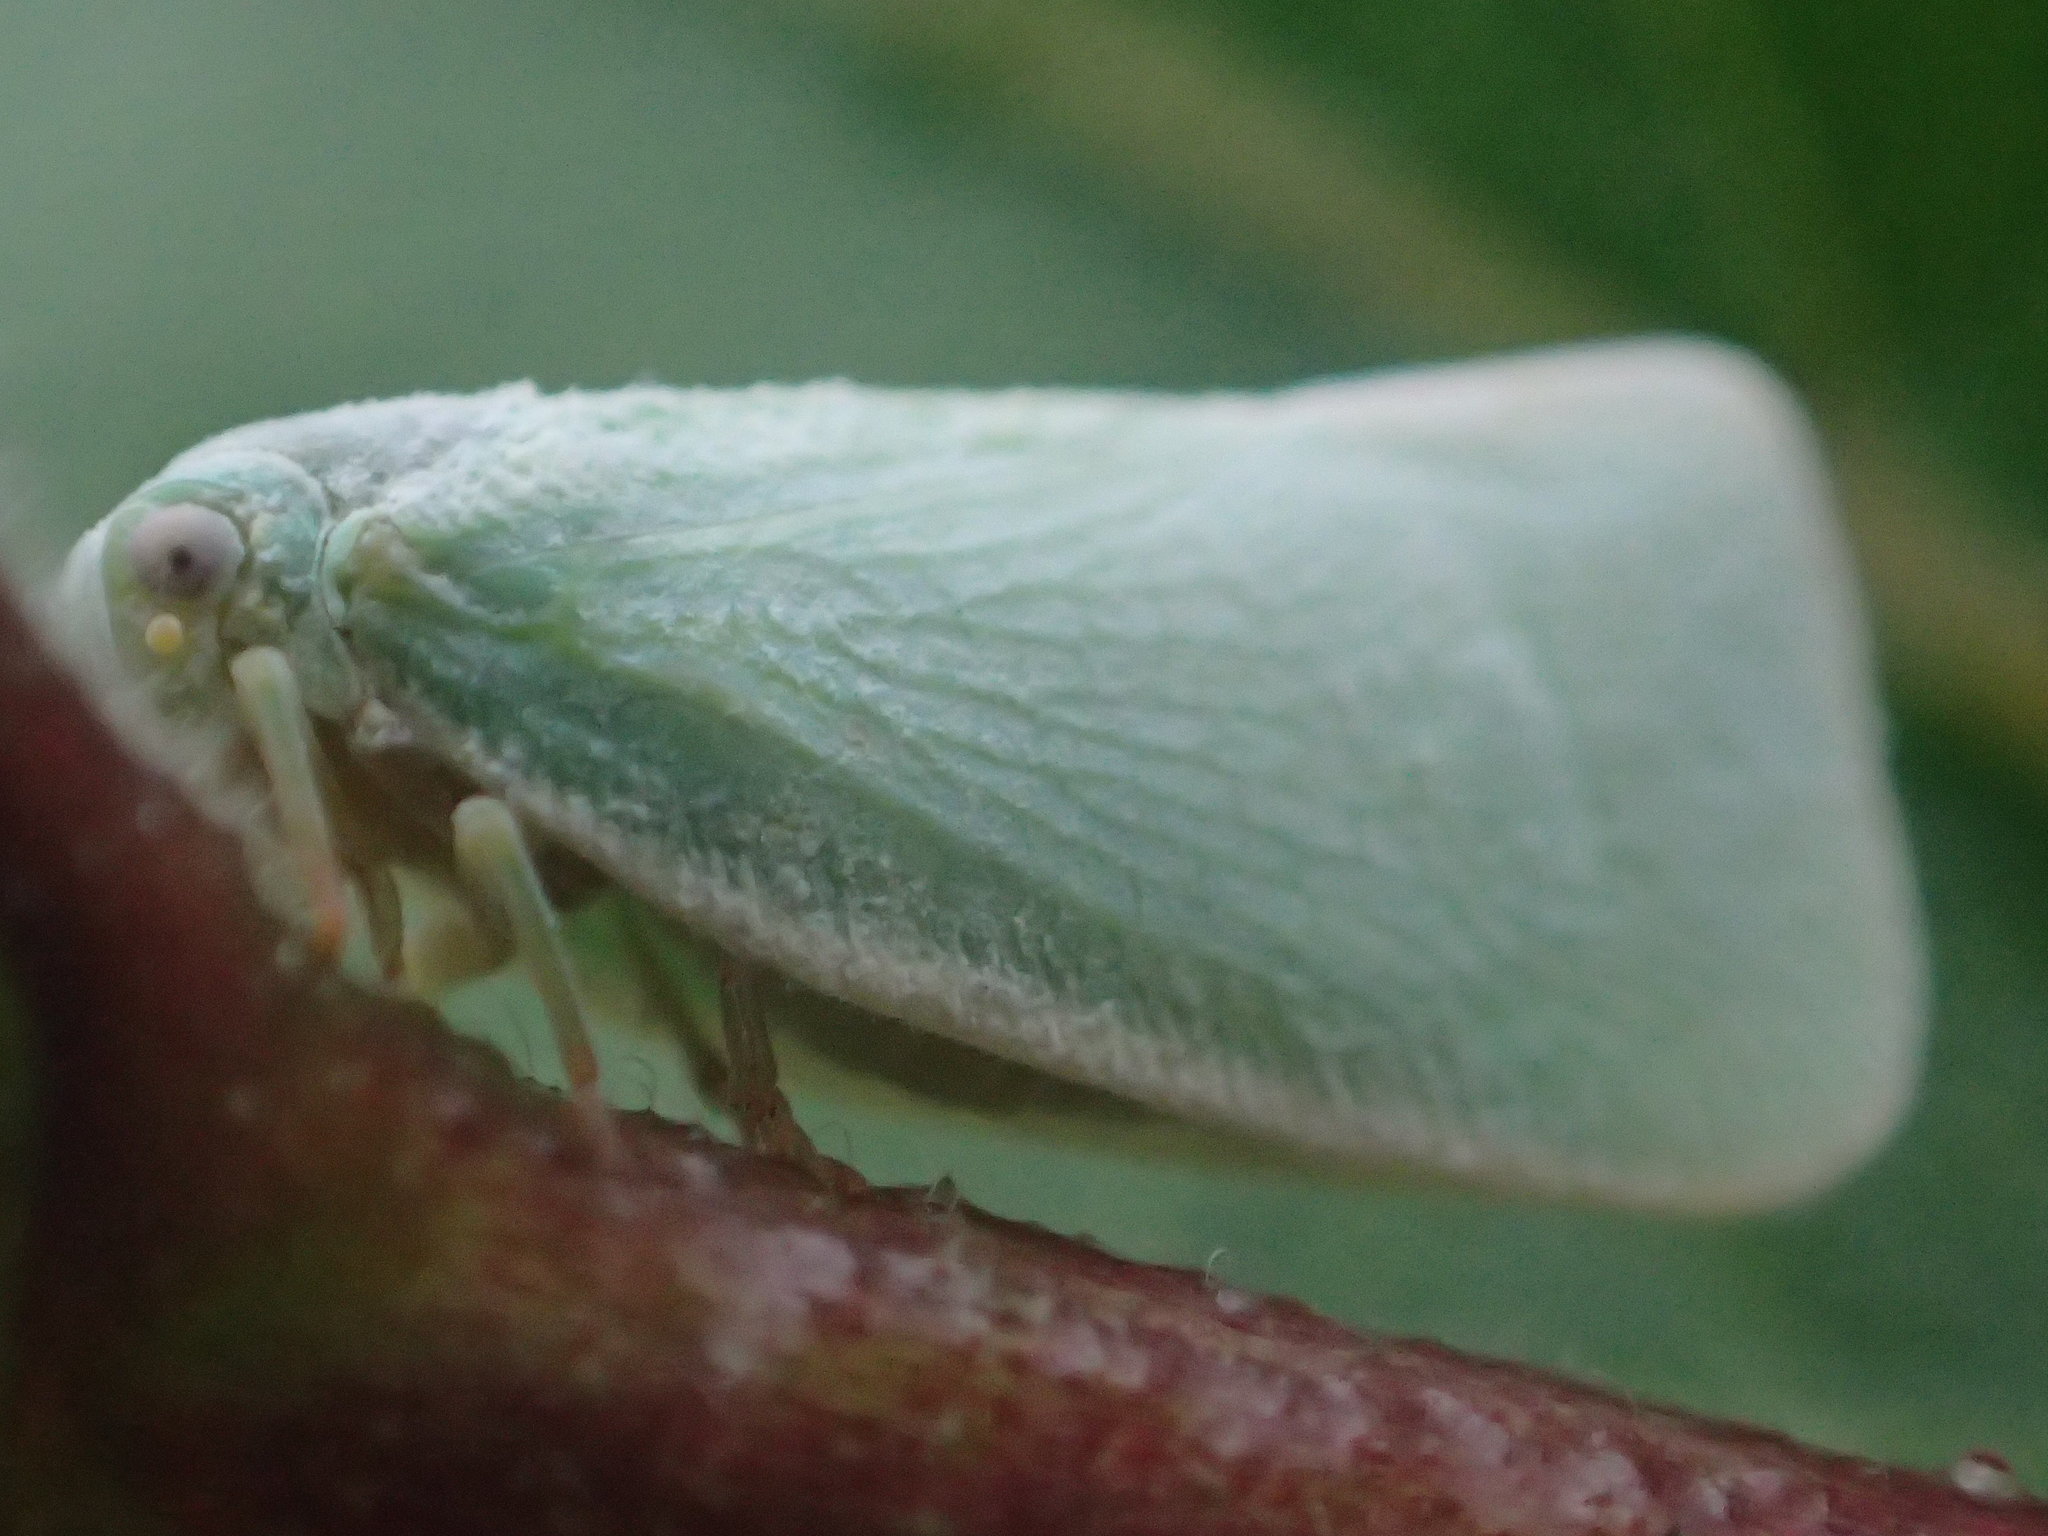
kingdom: Animalia
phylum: Arthropoda
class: Insecta
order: Hemiptera
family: Flatidae
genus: Flatormenis
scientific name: Flatormenis proxima
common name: Northern flatid planthopper
